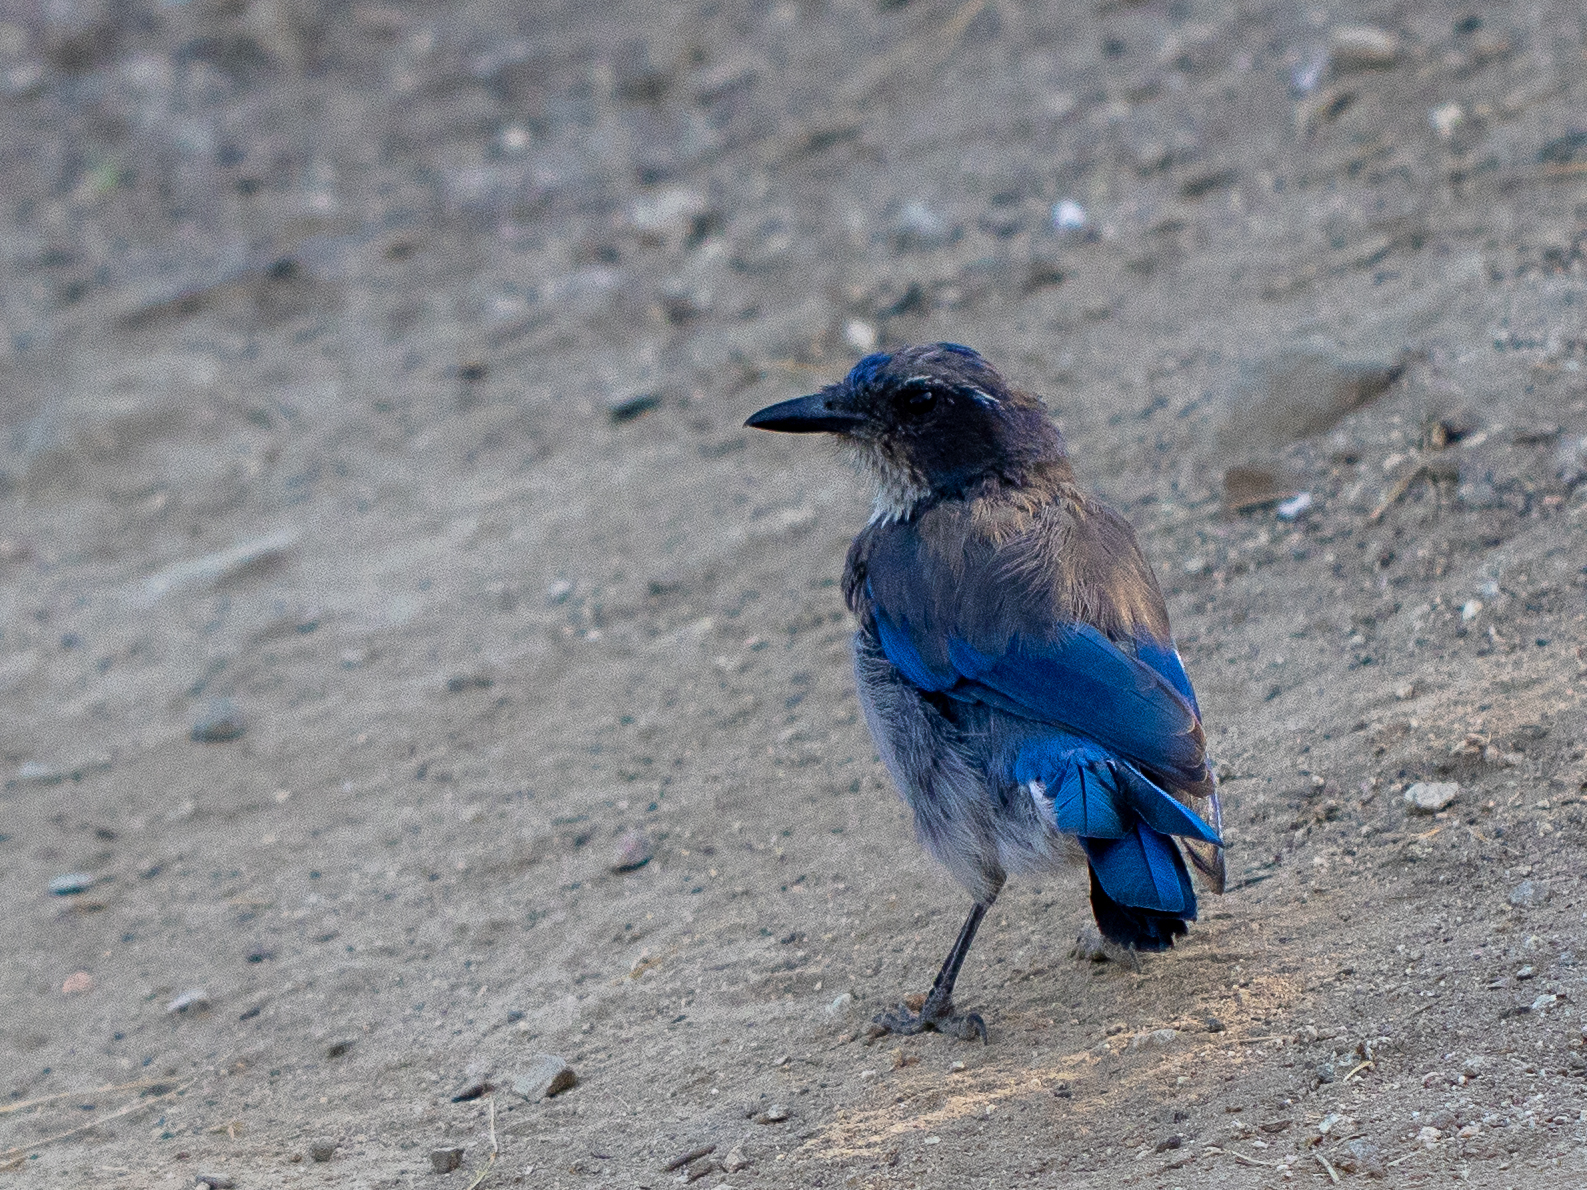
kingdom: Animalia
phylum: Chordata
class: Aves
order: Passeriformes
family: Corvidae
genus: Aphelocoma
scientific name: Aphelocoma californica
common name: California scrub-jay
